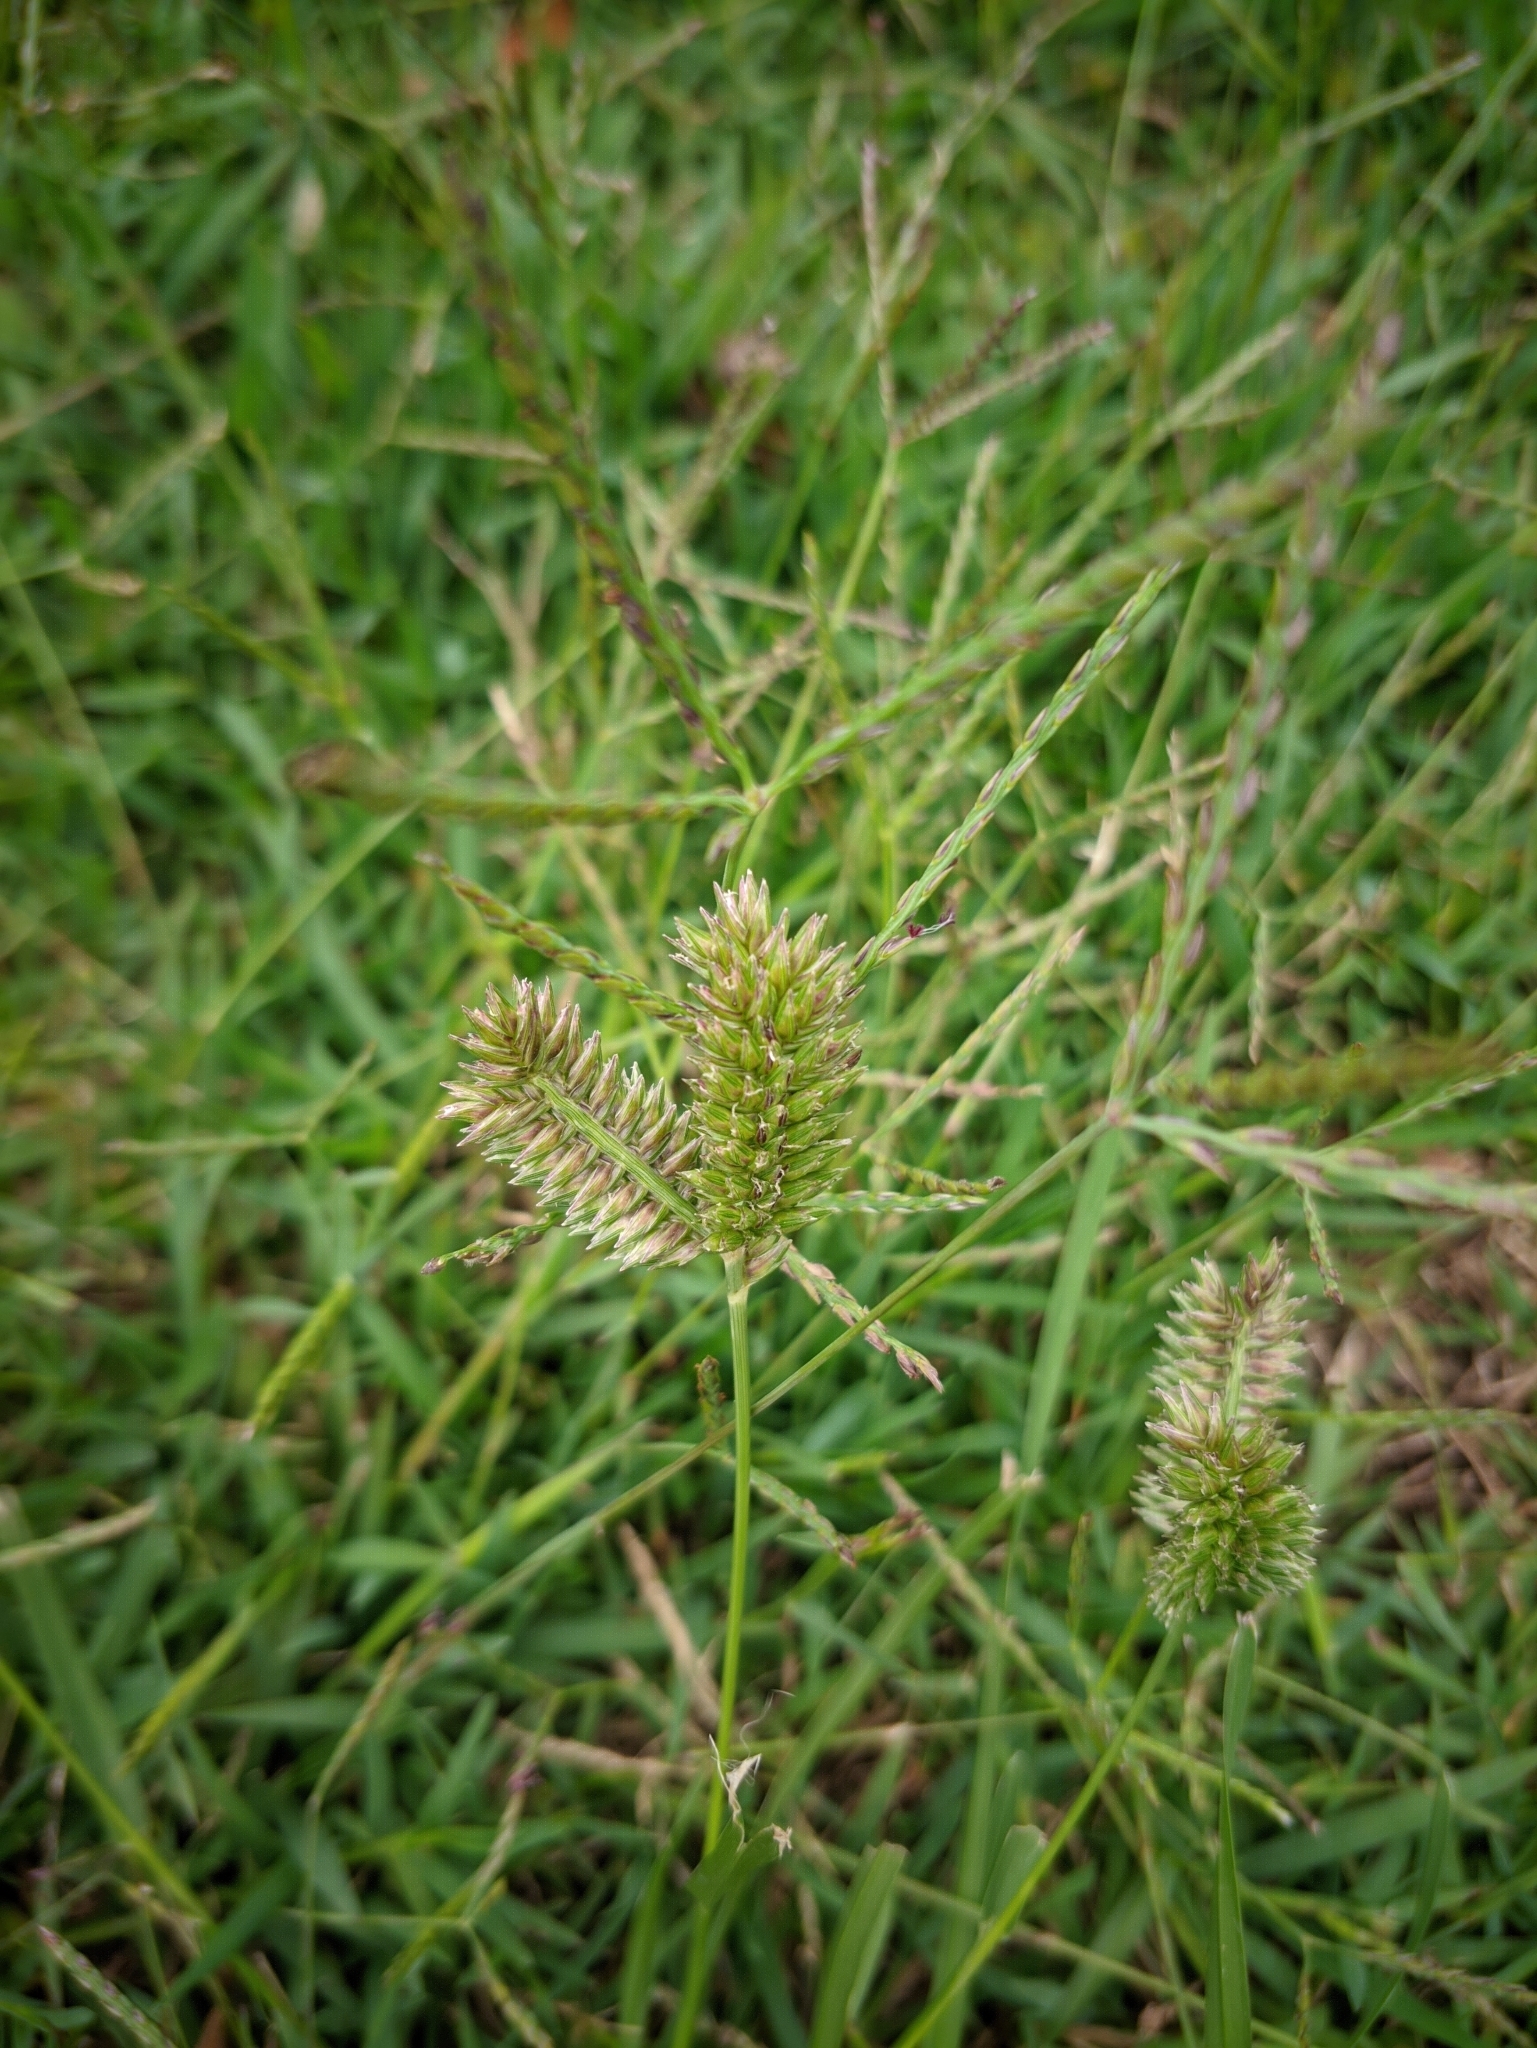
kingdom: Plantae
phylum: Tracheophyta
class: Liliopsida
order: Poales
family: Poaceae
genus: Eleusine
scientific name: Eleusine tristachya
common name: American yard-grass
